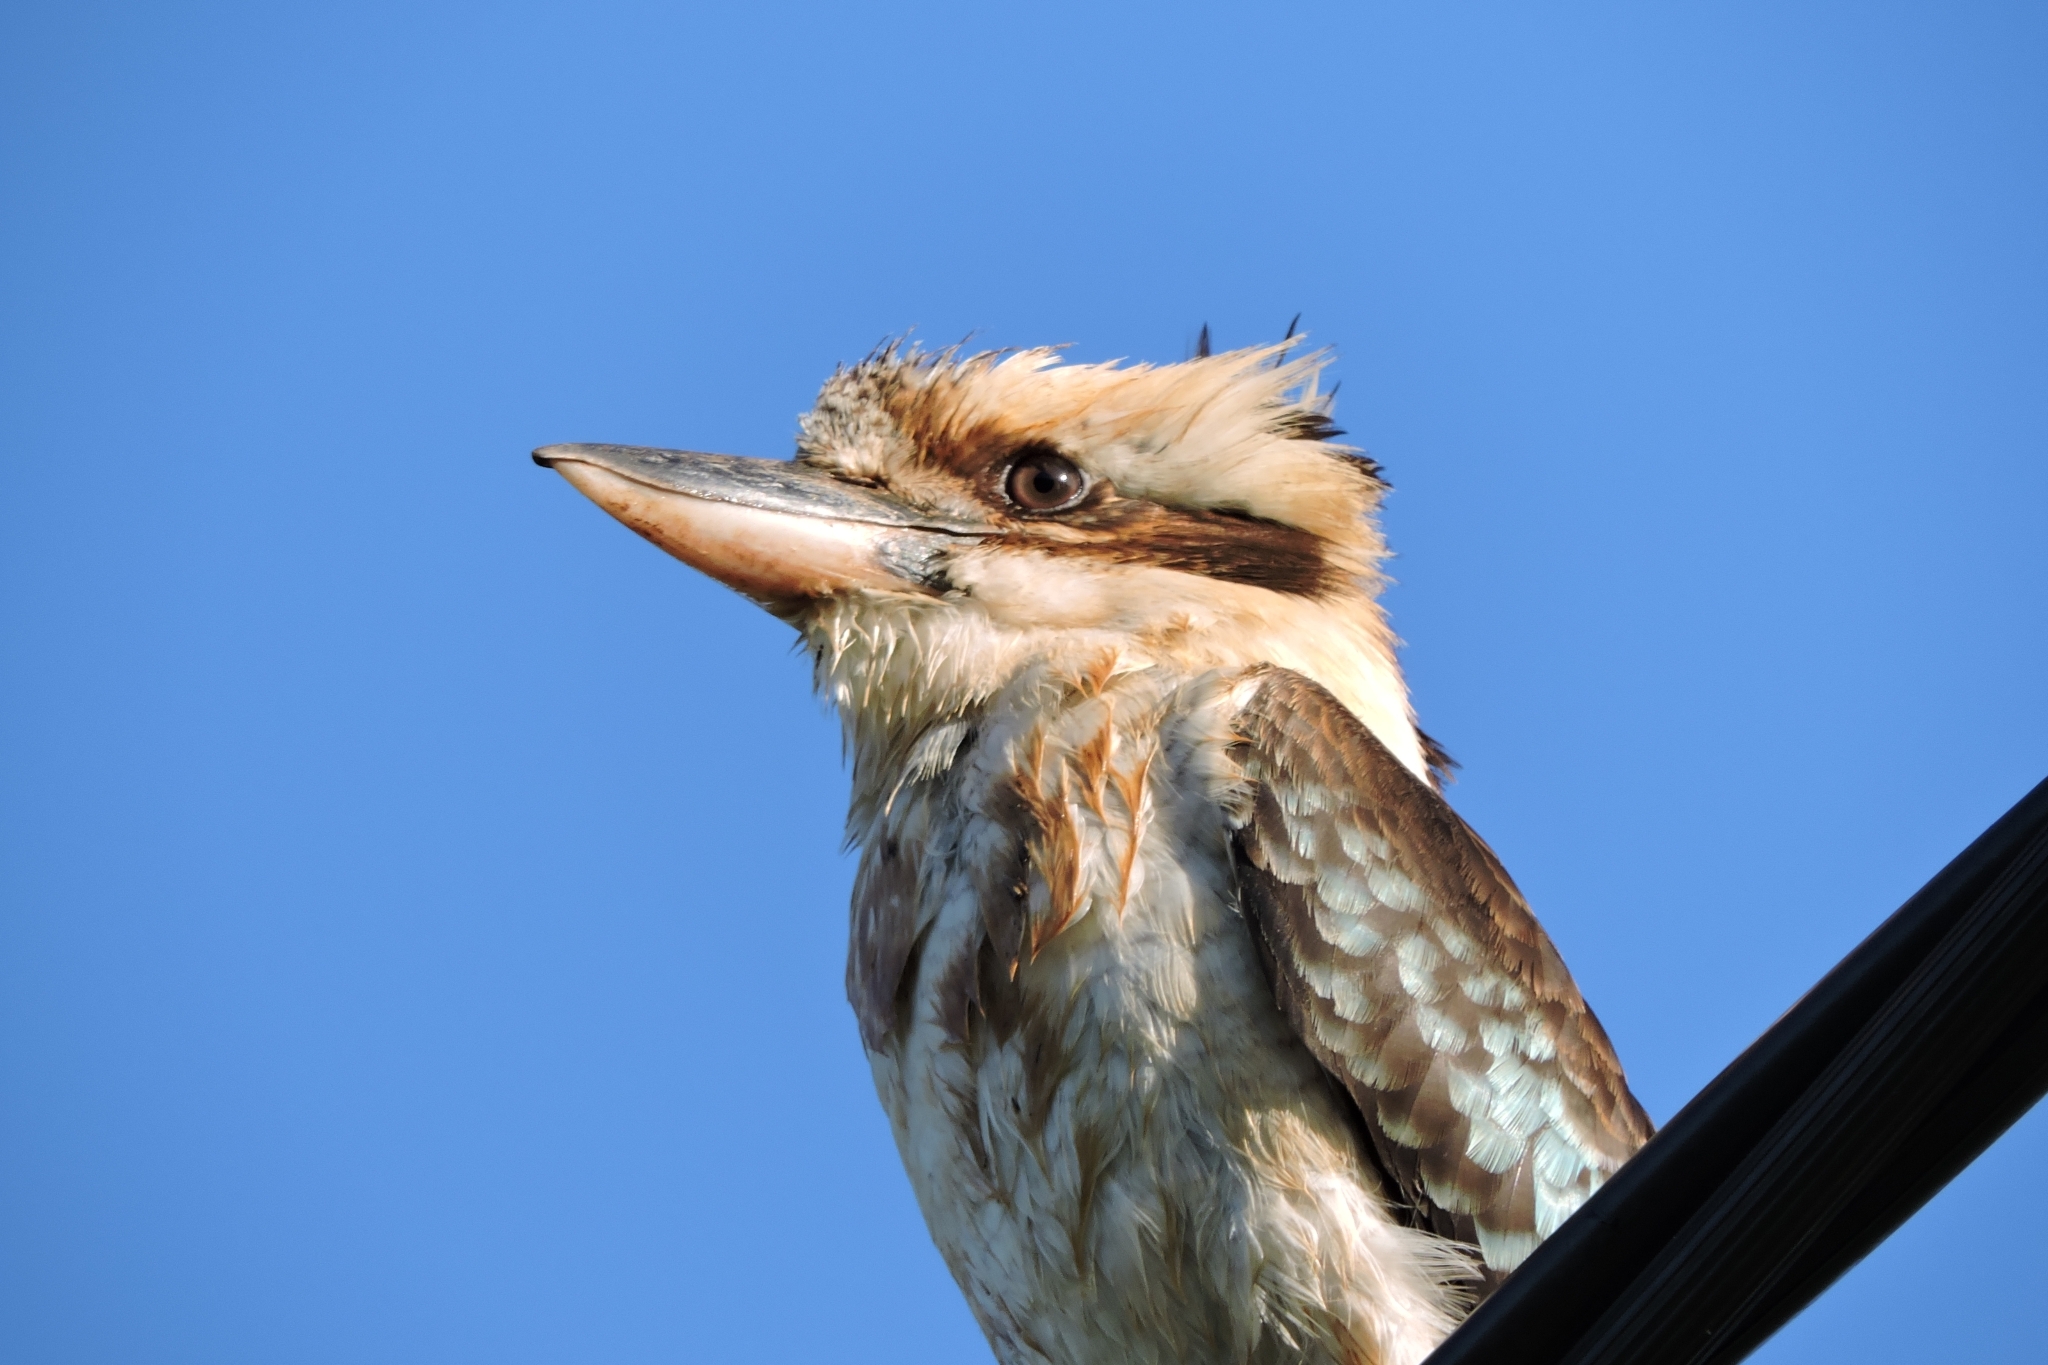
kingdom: Animalia
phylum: Chordata
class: Aves
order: Coraciiformes
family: Alcedinidae
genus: Dacelo
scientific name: Dacelo novaeguineae
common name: Laughing kookaburra
